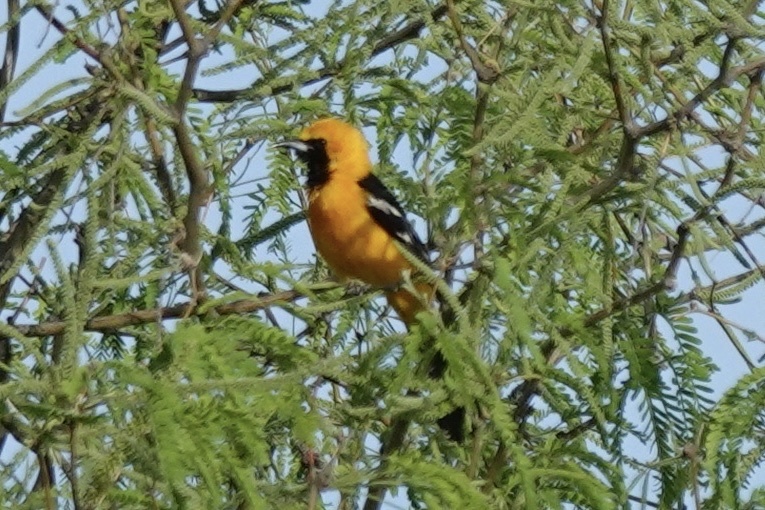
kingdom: Animalia
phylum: Chordata
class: Aves
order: Passeriformes
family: Icteridae
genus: Icterus
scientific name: Icterus cucullatus
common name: Hooded oriole
